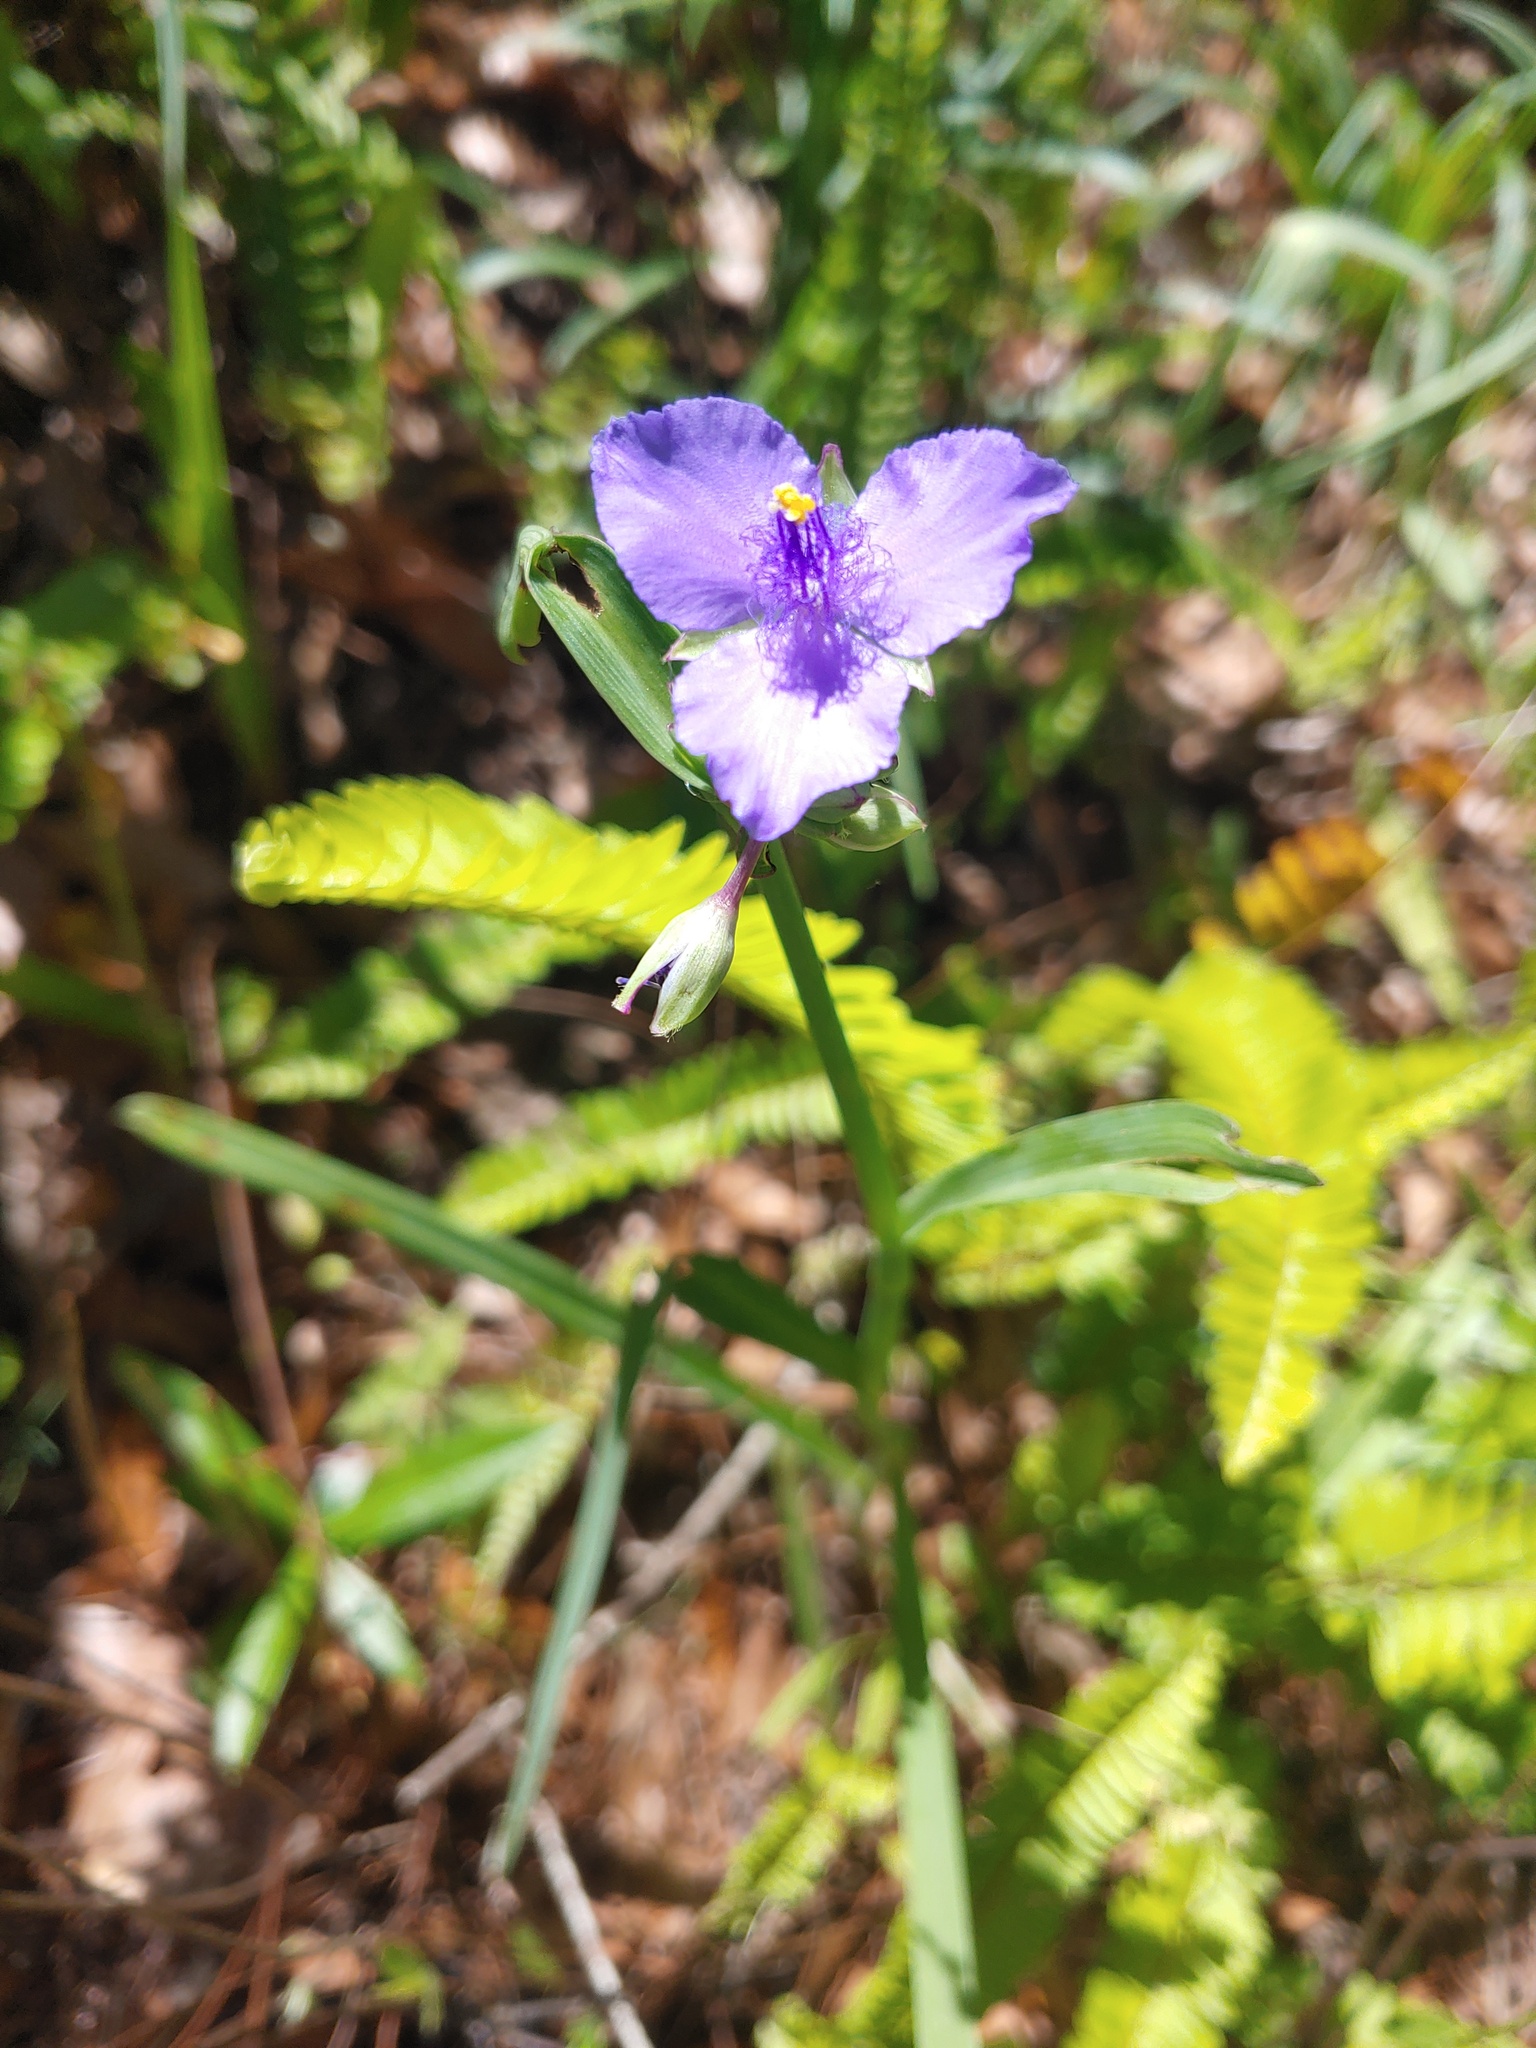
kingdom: Plantae
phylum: Tracheophyta
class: Liliopsida
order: Commelinales
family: Commelinaceae
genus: Tradescantia
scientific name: Tradescantia ohiensis
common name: Ohio spiderwort
